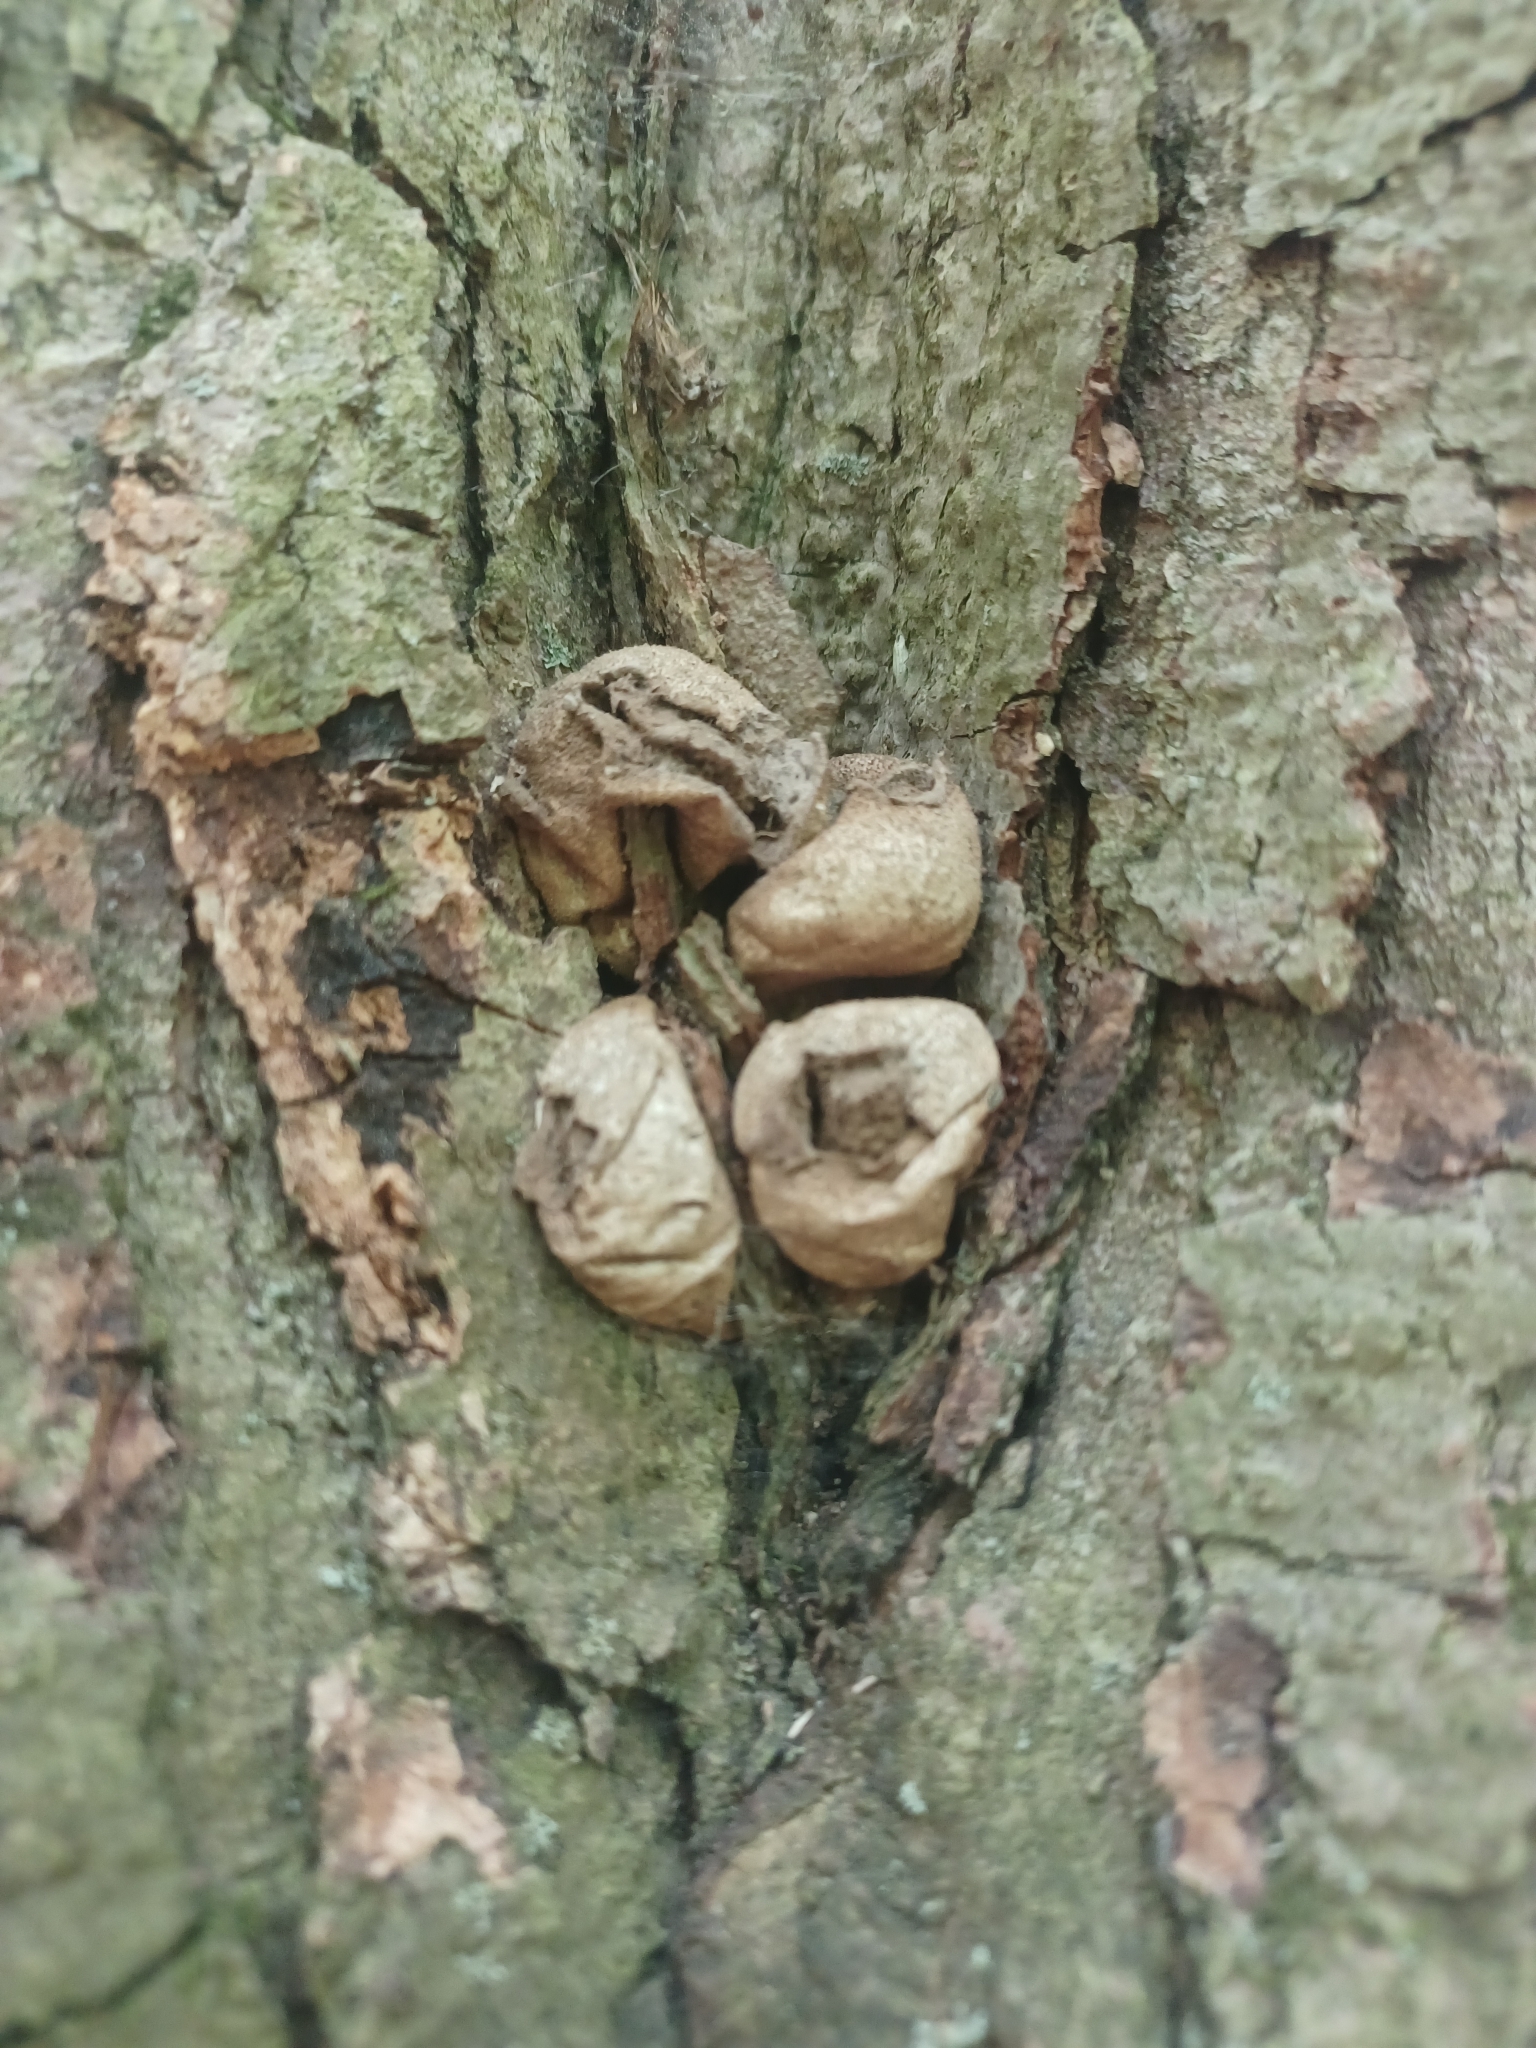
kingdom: Fungi
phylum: Basidiomycota
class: Agaricomycetes
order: Agaricales
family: Lycoperdaceae
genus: Apioperdon
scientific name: Apioperdon pyriforme
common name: Pear-shaped puffball
